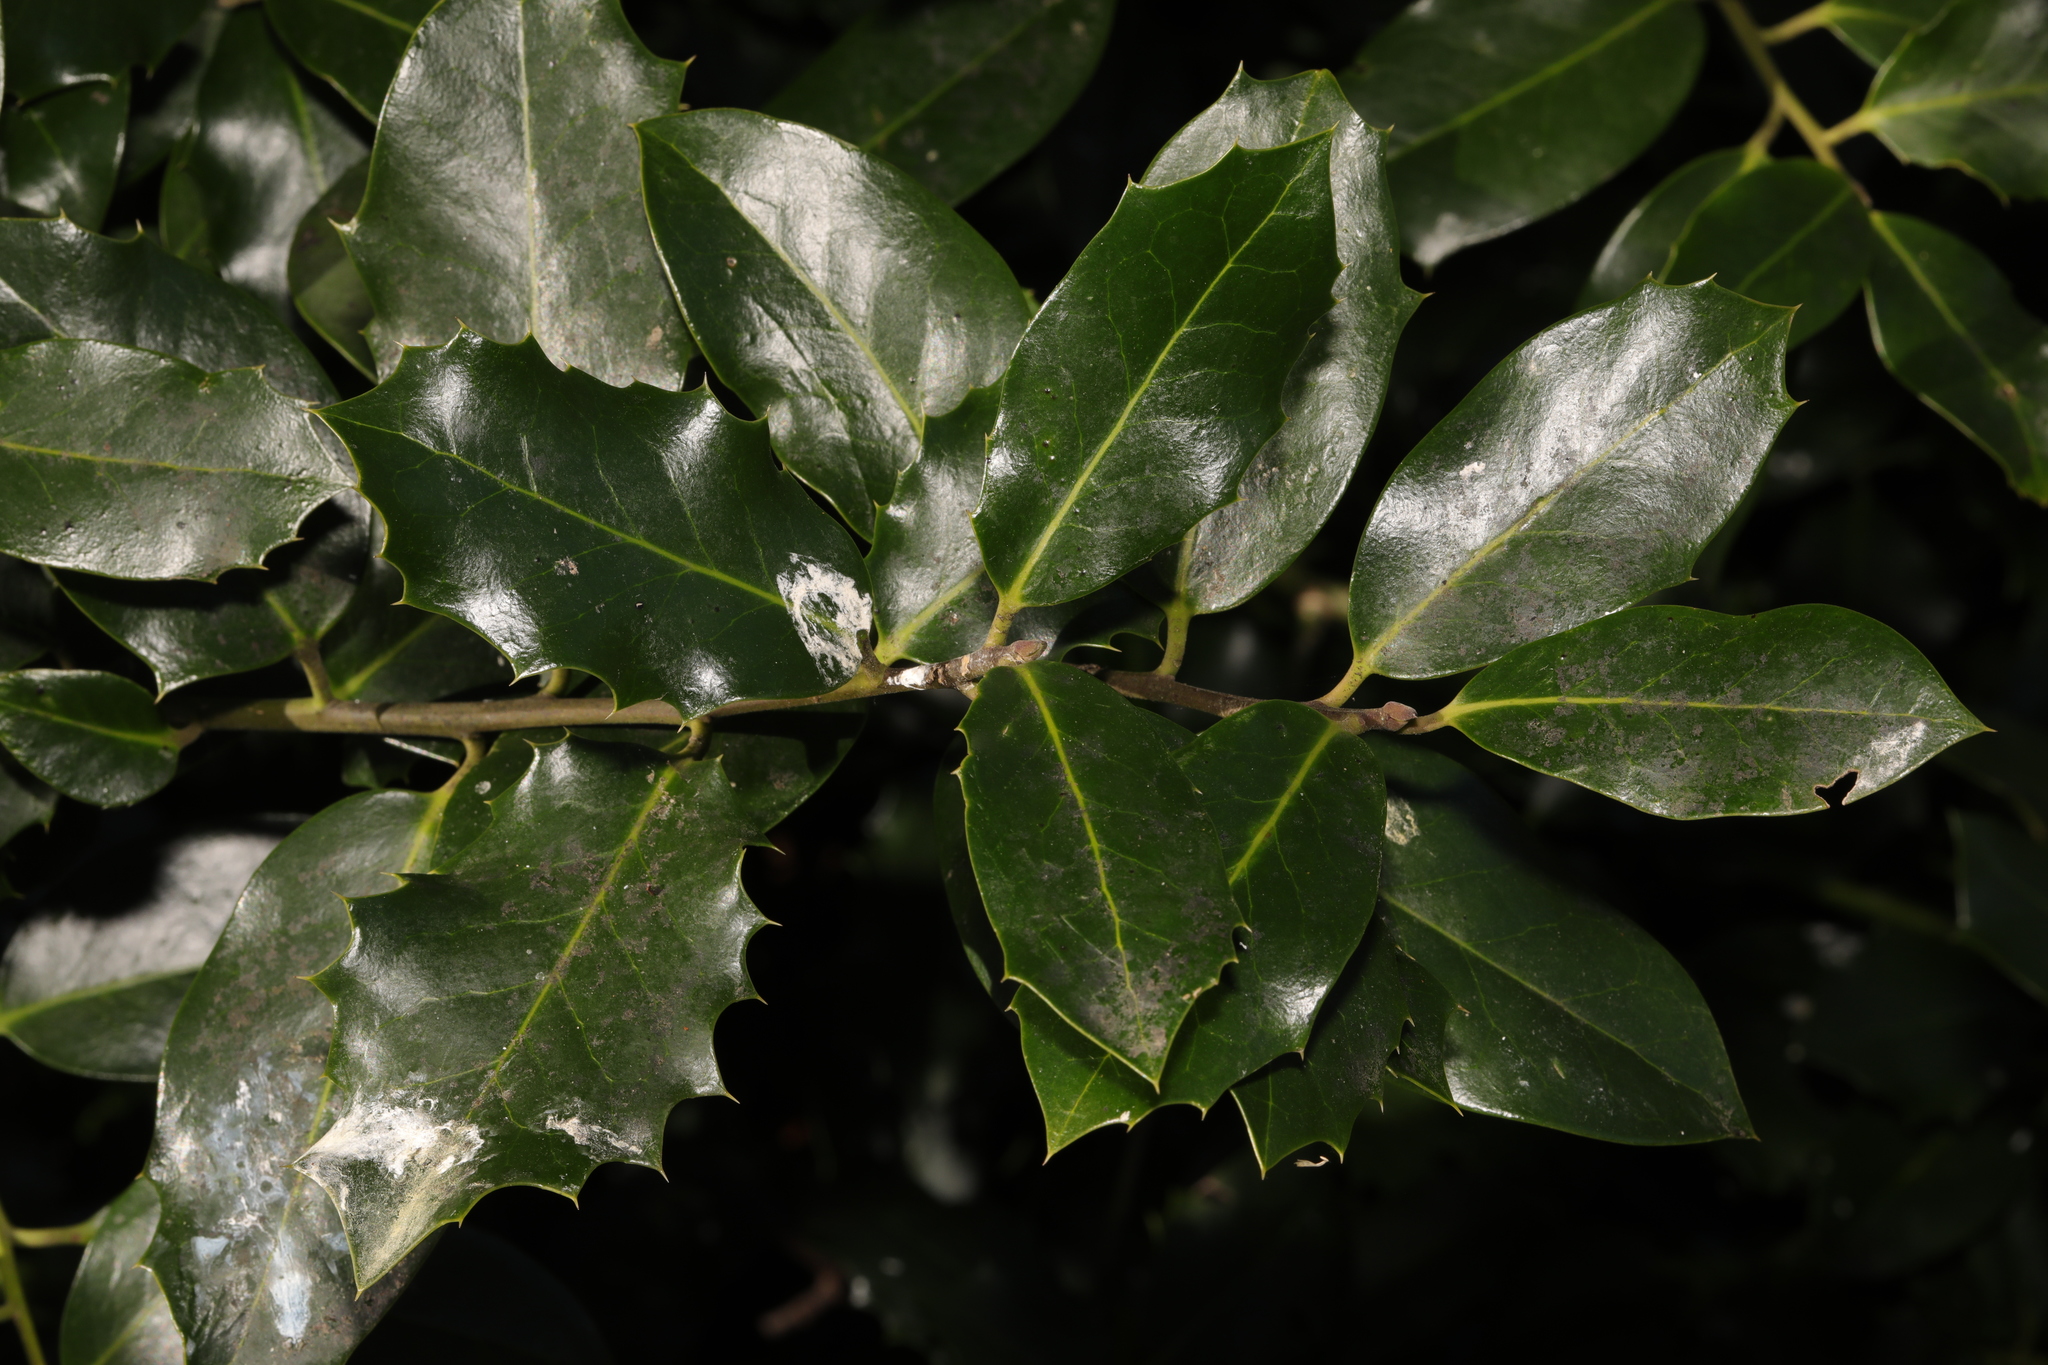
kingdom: Plantae
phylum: Tracheophyta
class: Magnoliopsida
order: Aquifoliales
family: Aquifoliaceae
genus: Ilex
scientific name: Ilex aquifolium
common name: English holly
